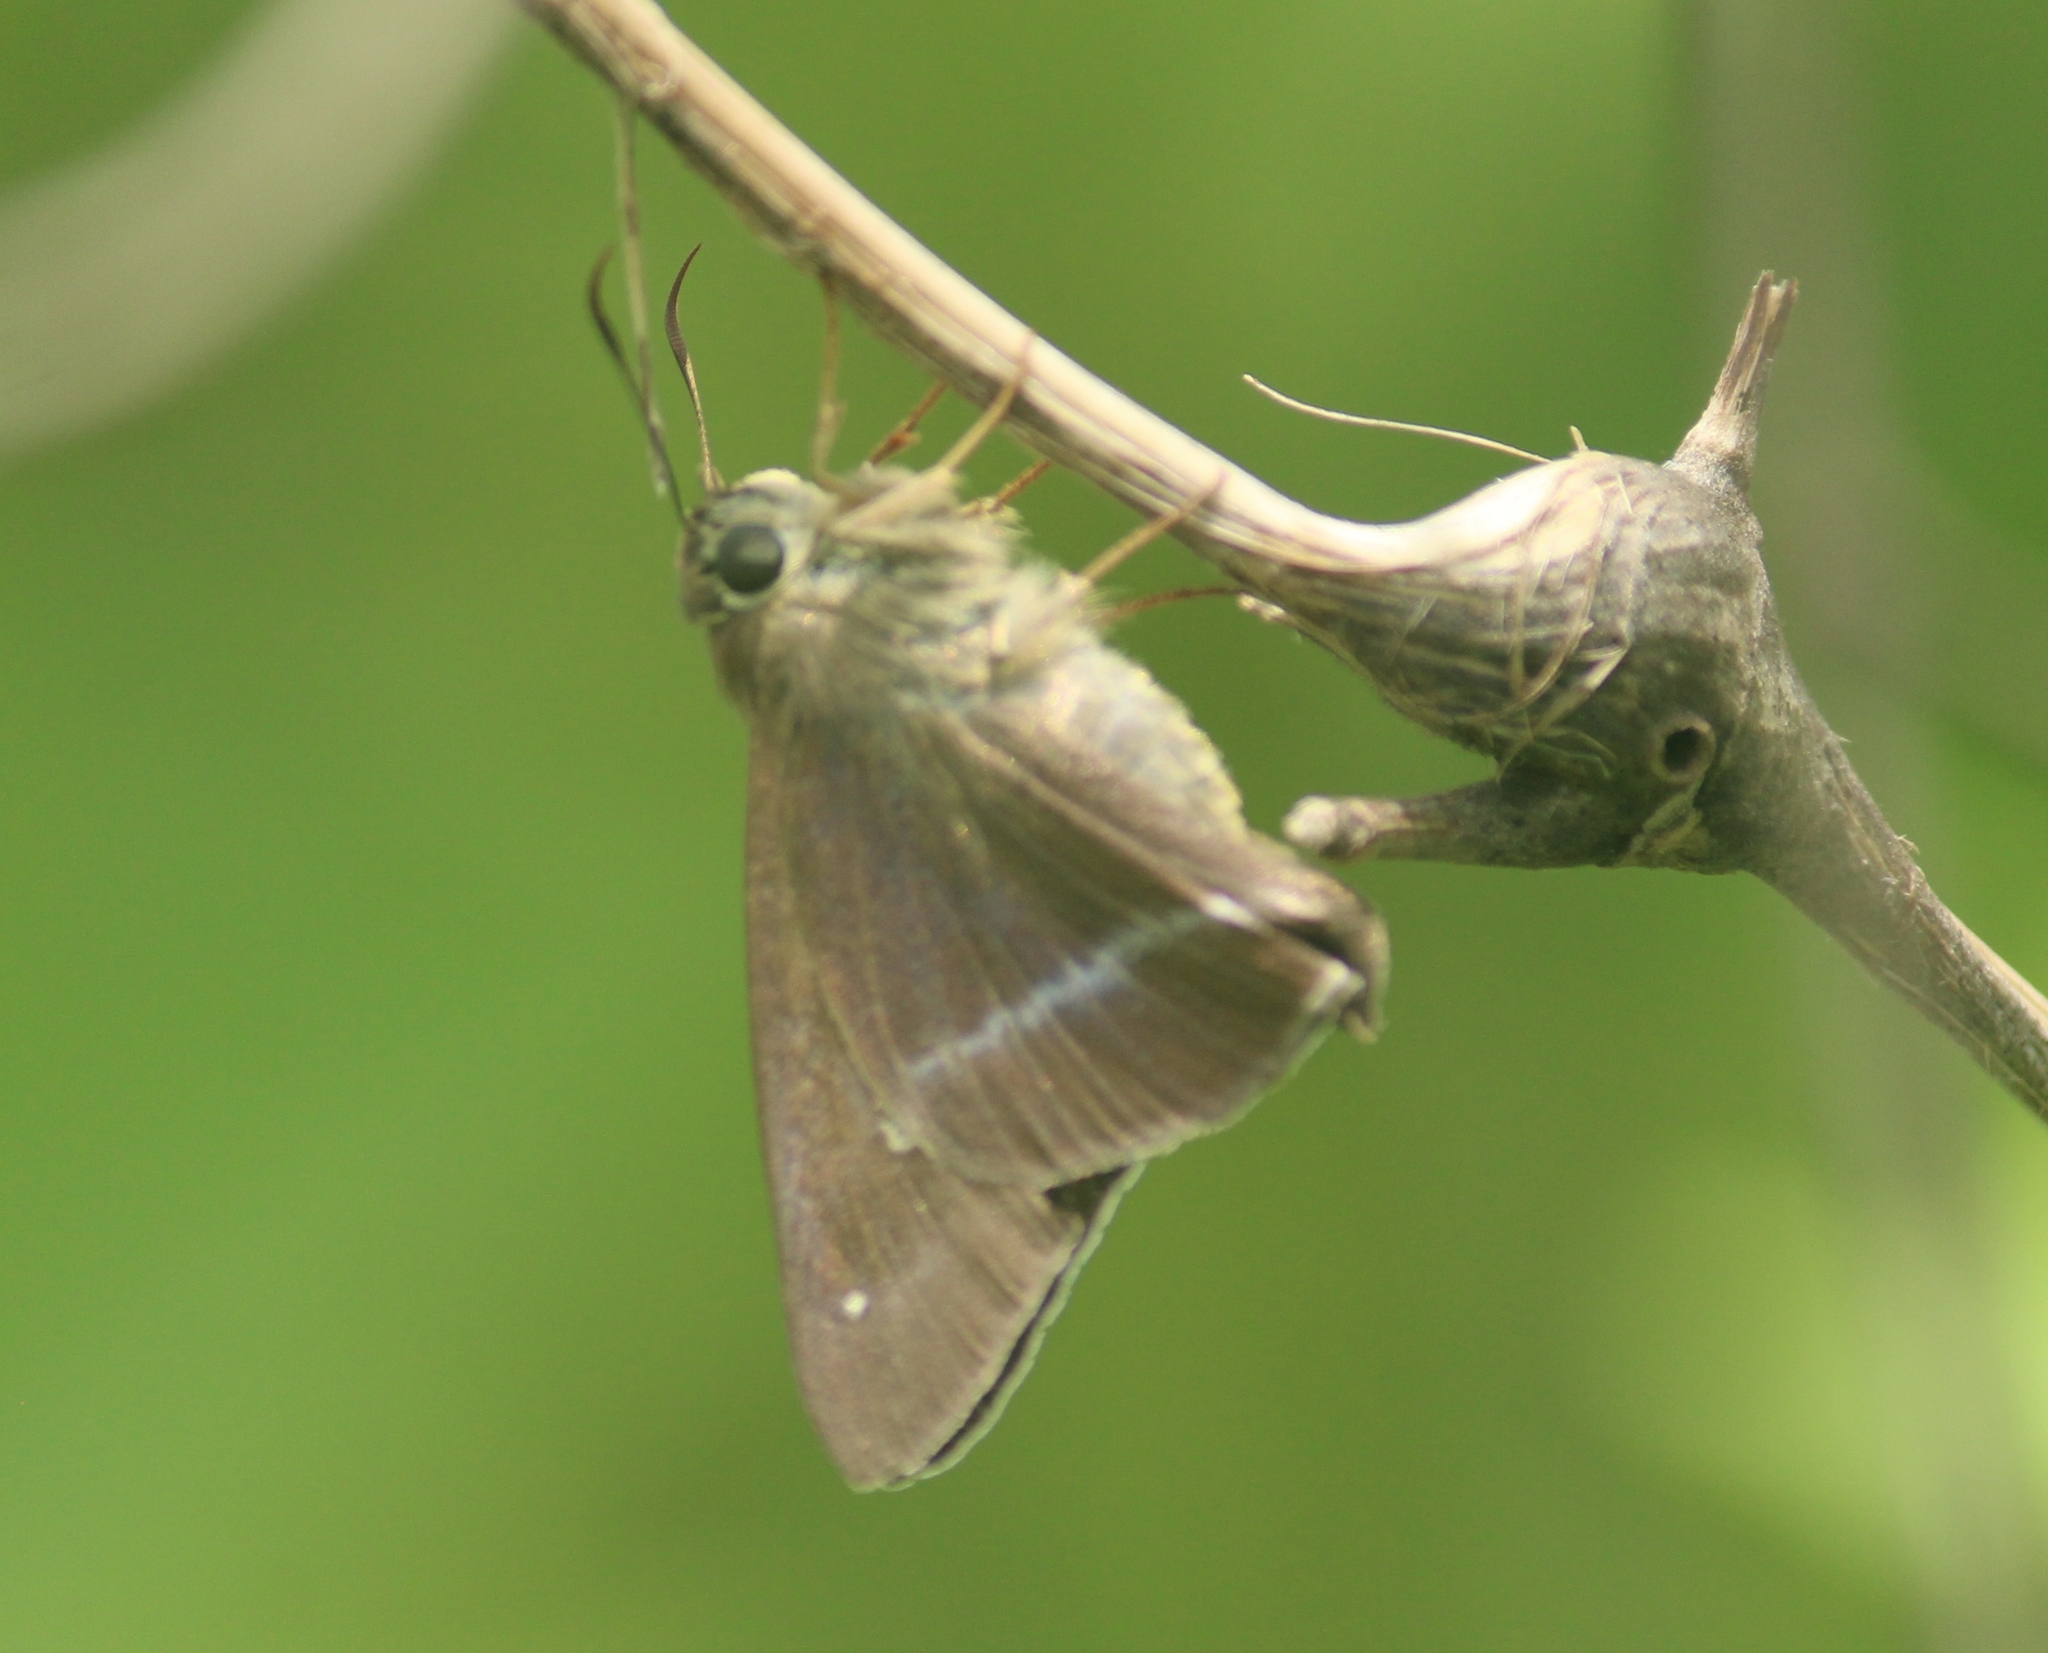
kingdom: Animalia
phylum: Arthropoda
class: Insecta
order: Lepidoptera
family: Hesperiidae
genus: Hasora
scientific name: Hasora chromus
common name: Common banded awl
